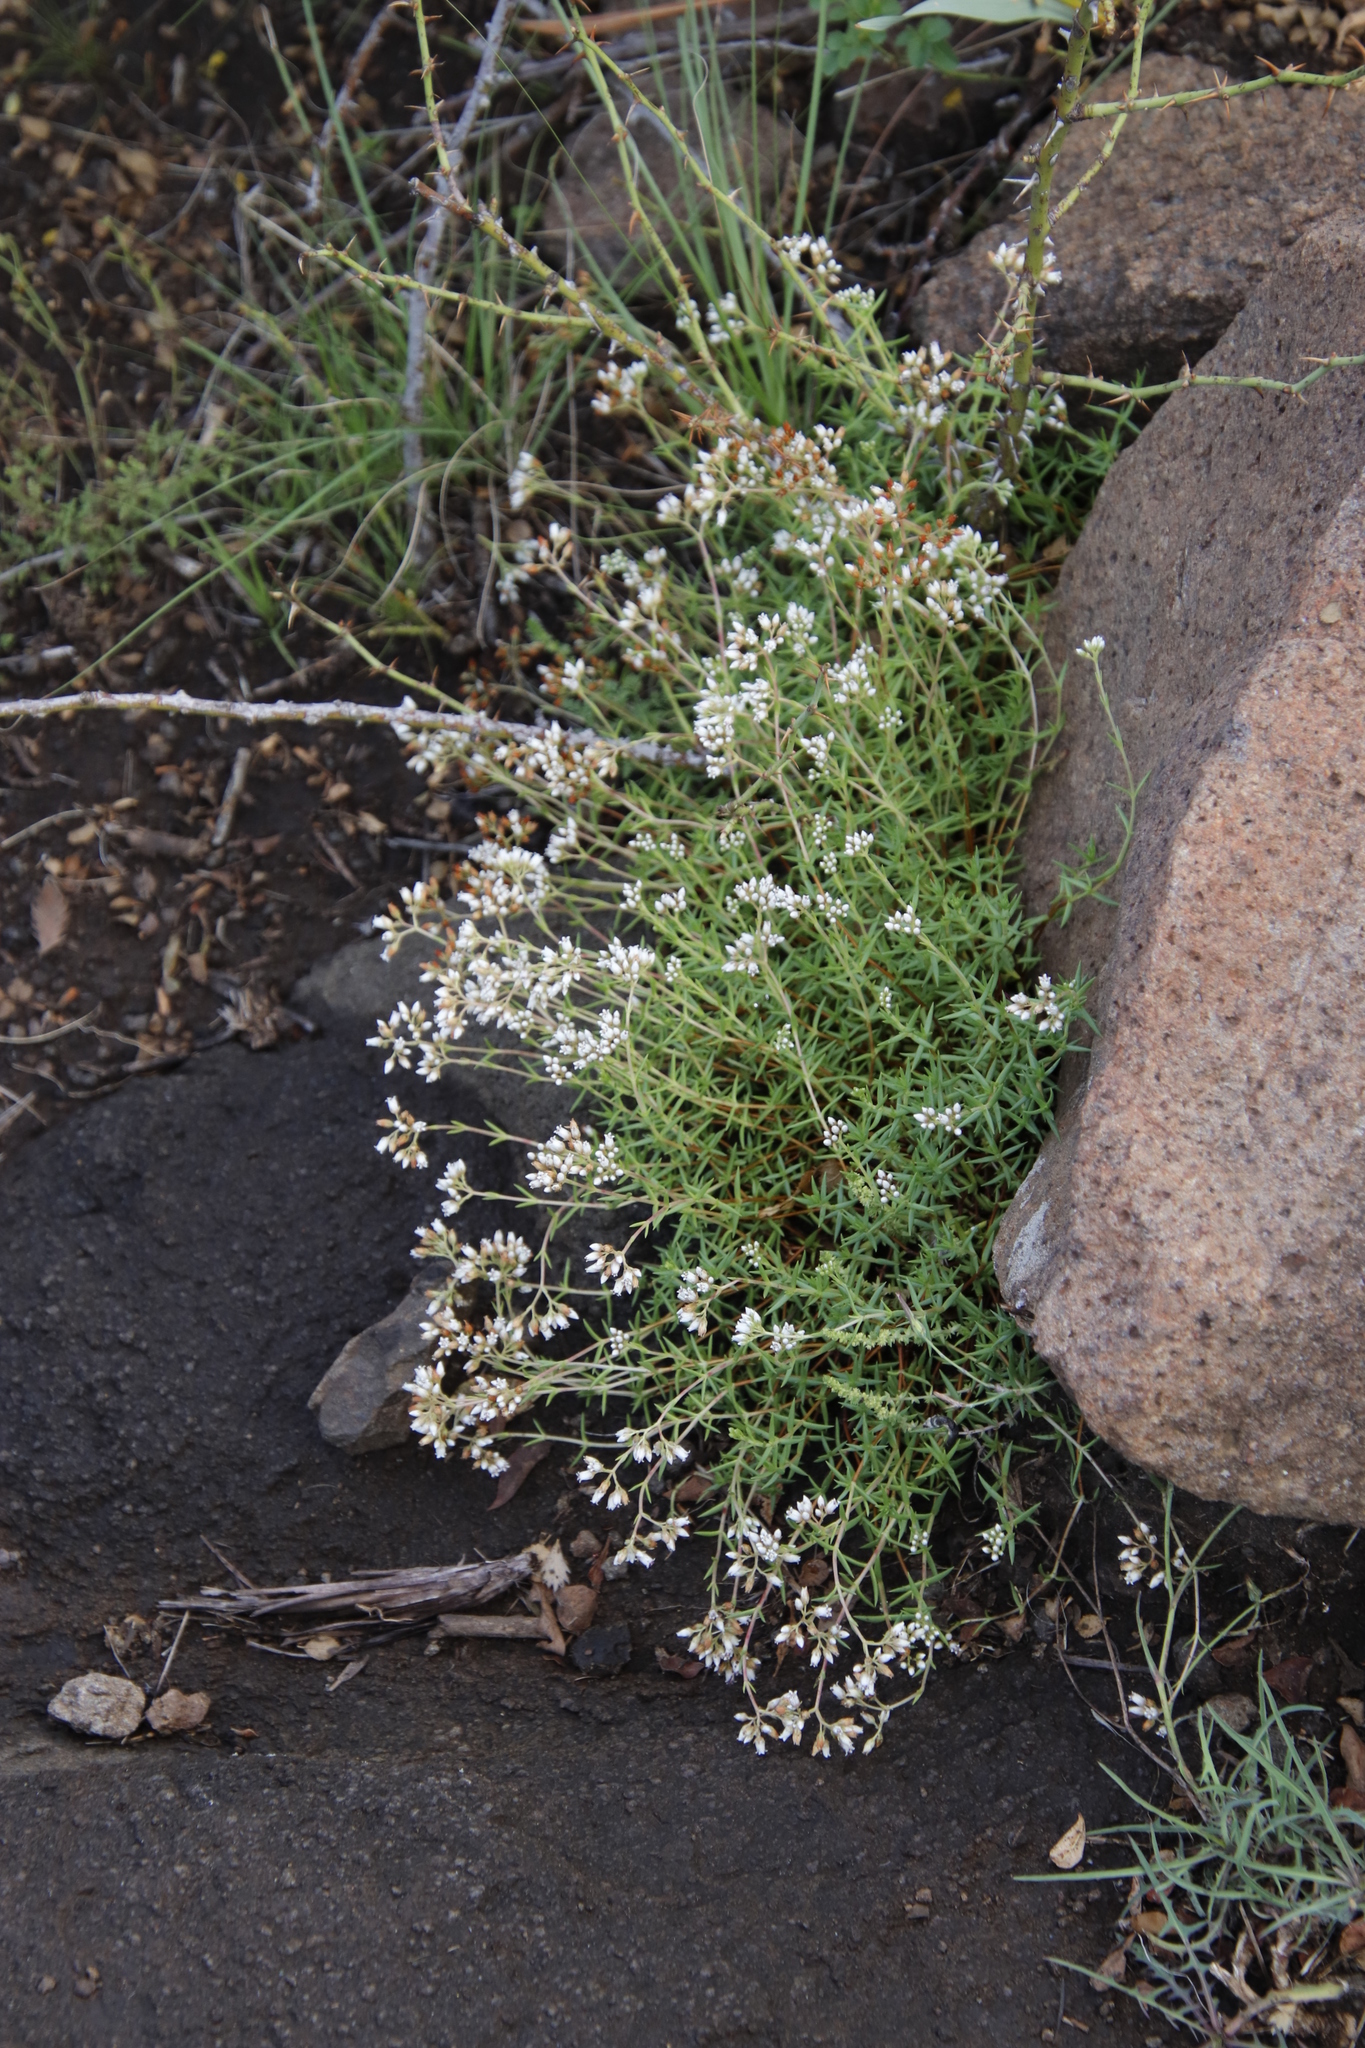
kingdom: Plantae
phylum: Tracheophyta
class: Magnoliopsida
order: Saxifragales
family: Crassulaceae
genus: Crassula
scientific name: Crassula dependens
